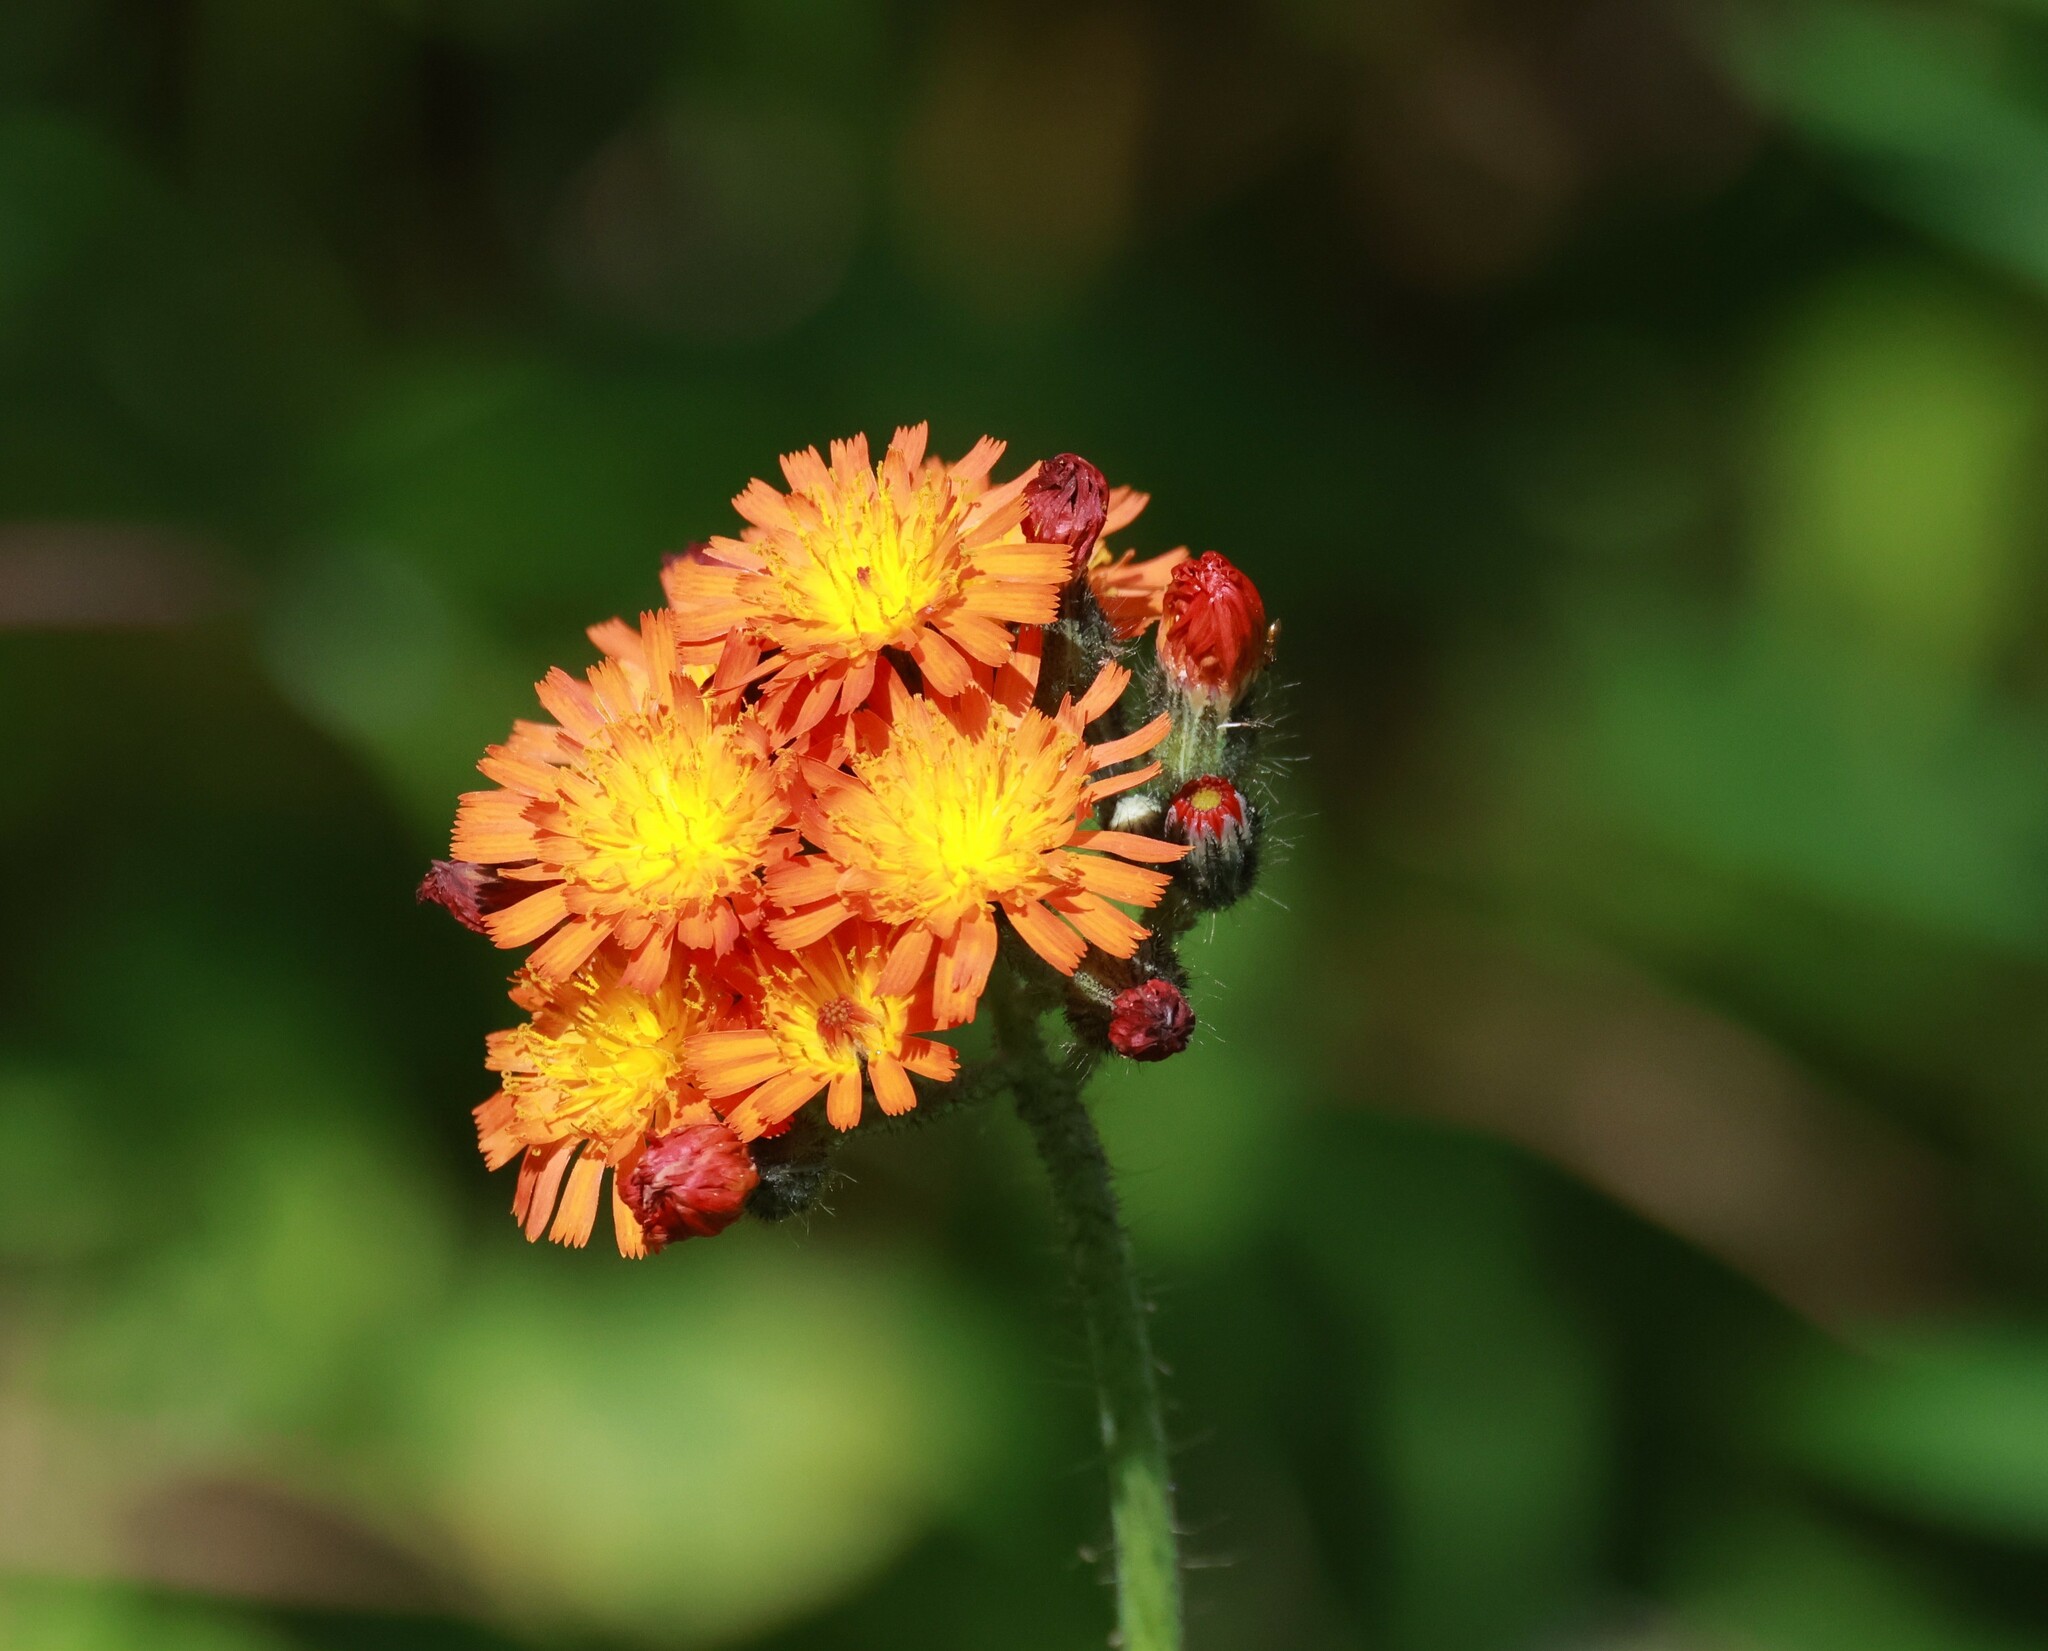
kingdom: Plantae
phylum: Tracheophyta
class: Magnoliopsida
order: Asterales
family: Asteraceae
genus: Pilosella
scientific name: Pilosella aurantiaca
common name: Fox-and-cubs
